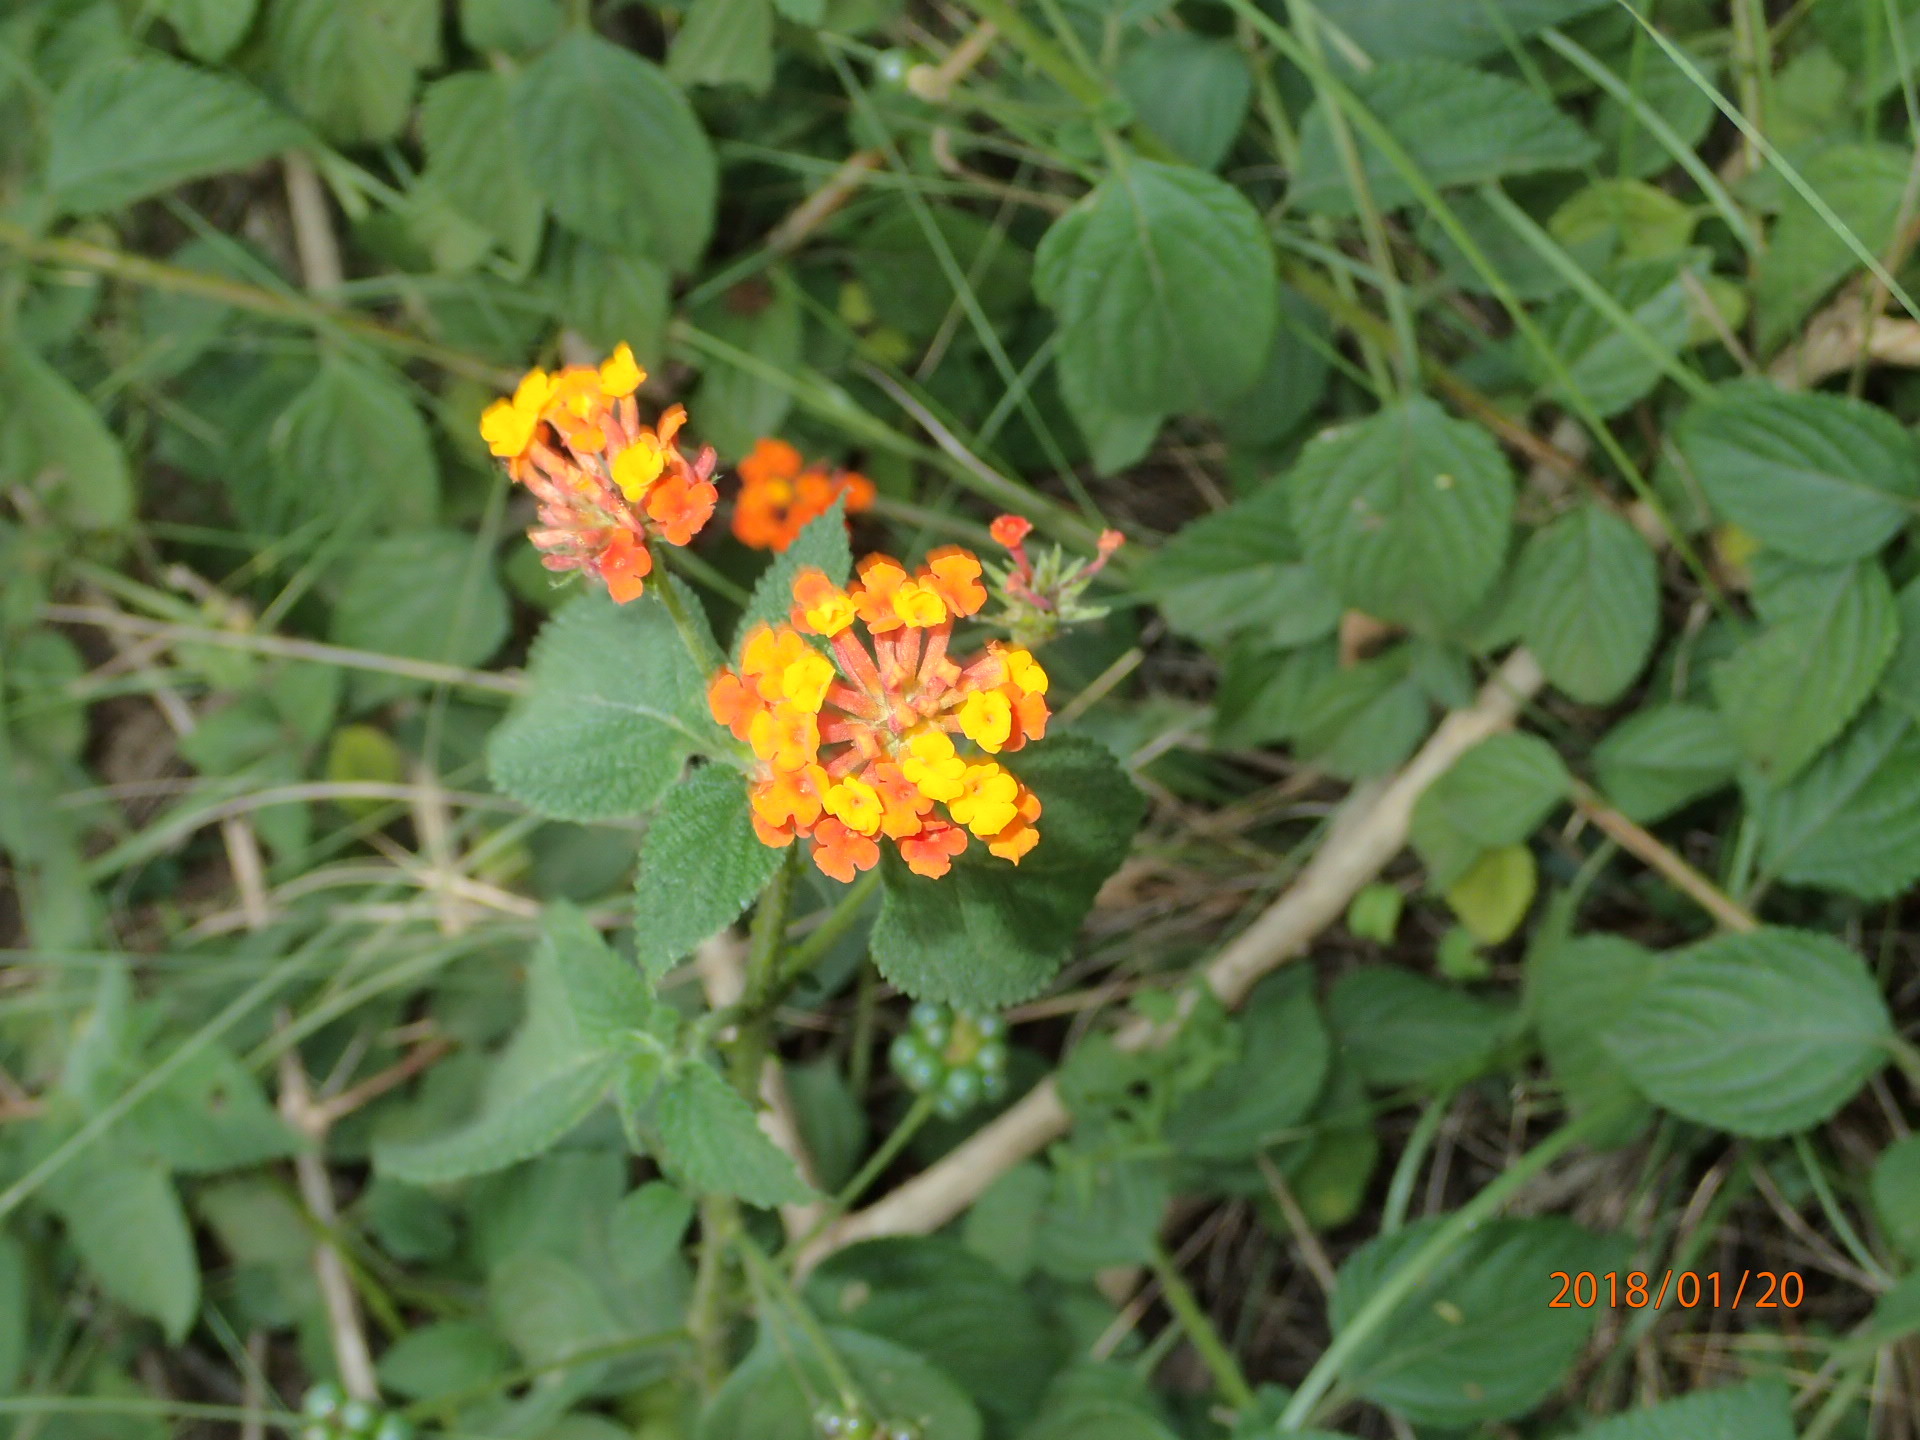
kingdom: Plantae
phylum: Tracheophyta
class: Magnoliopsida
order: Lamiales
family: Verbenaceae
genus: Lantana
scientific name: Lantana camara
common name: Lantana
